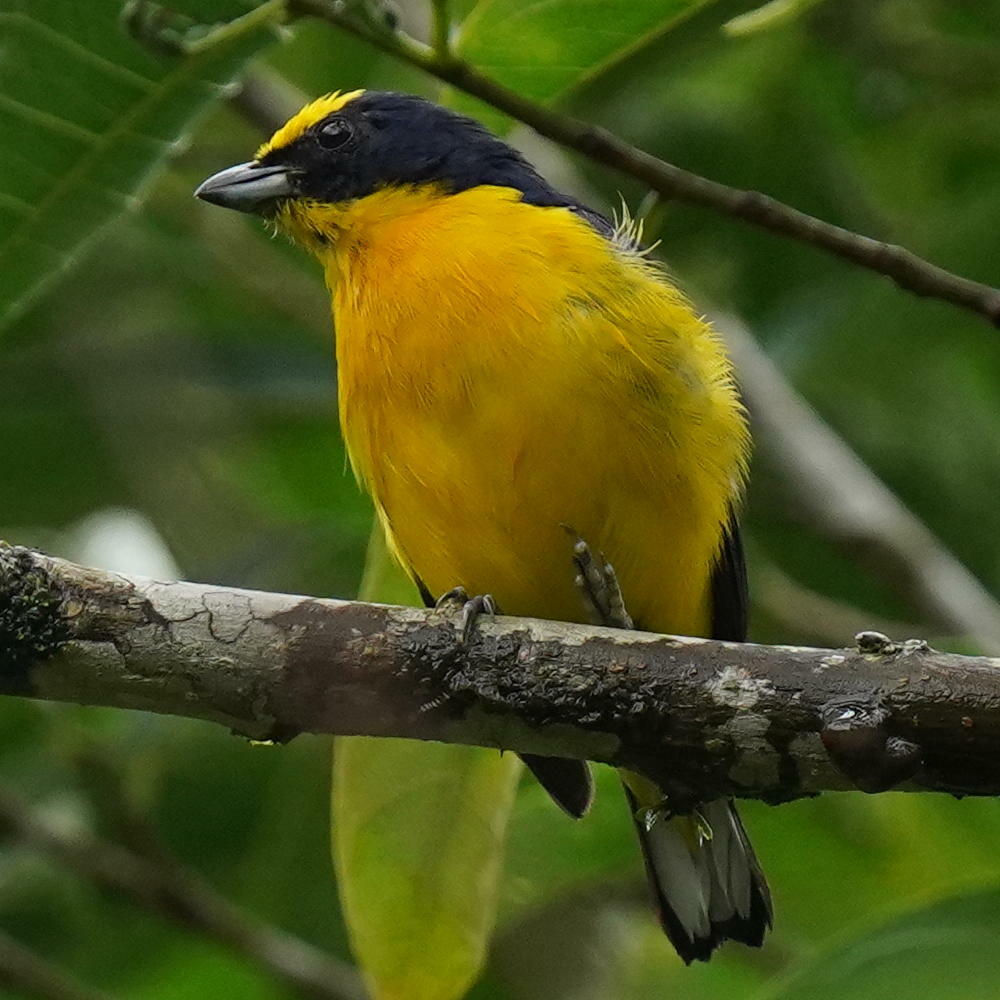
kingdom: Animalia
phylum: Chordata
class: Aves
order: Passeriformes
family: Fringillidae
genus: Euphonia
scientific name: Euphonia laniirostris
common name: Thick-billed euphonia
